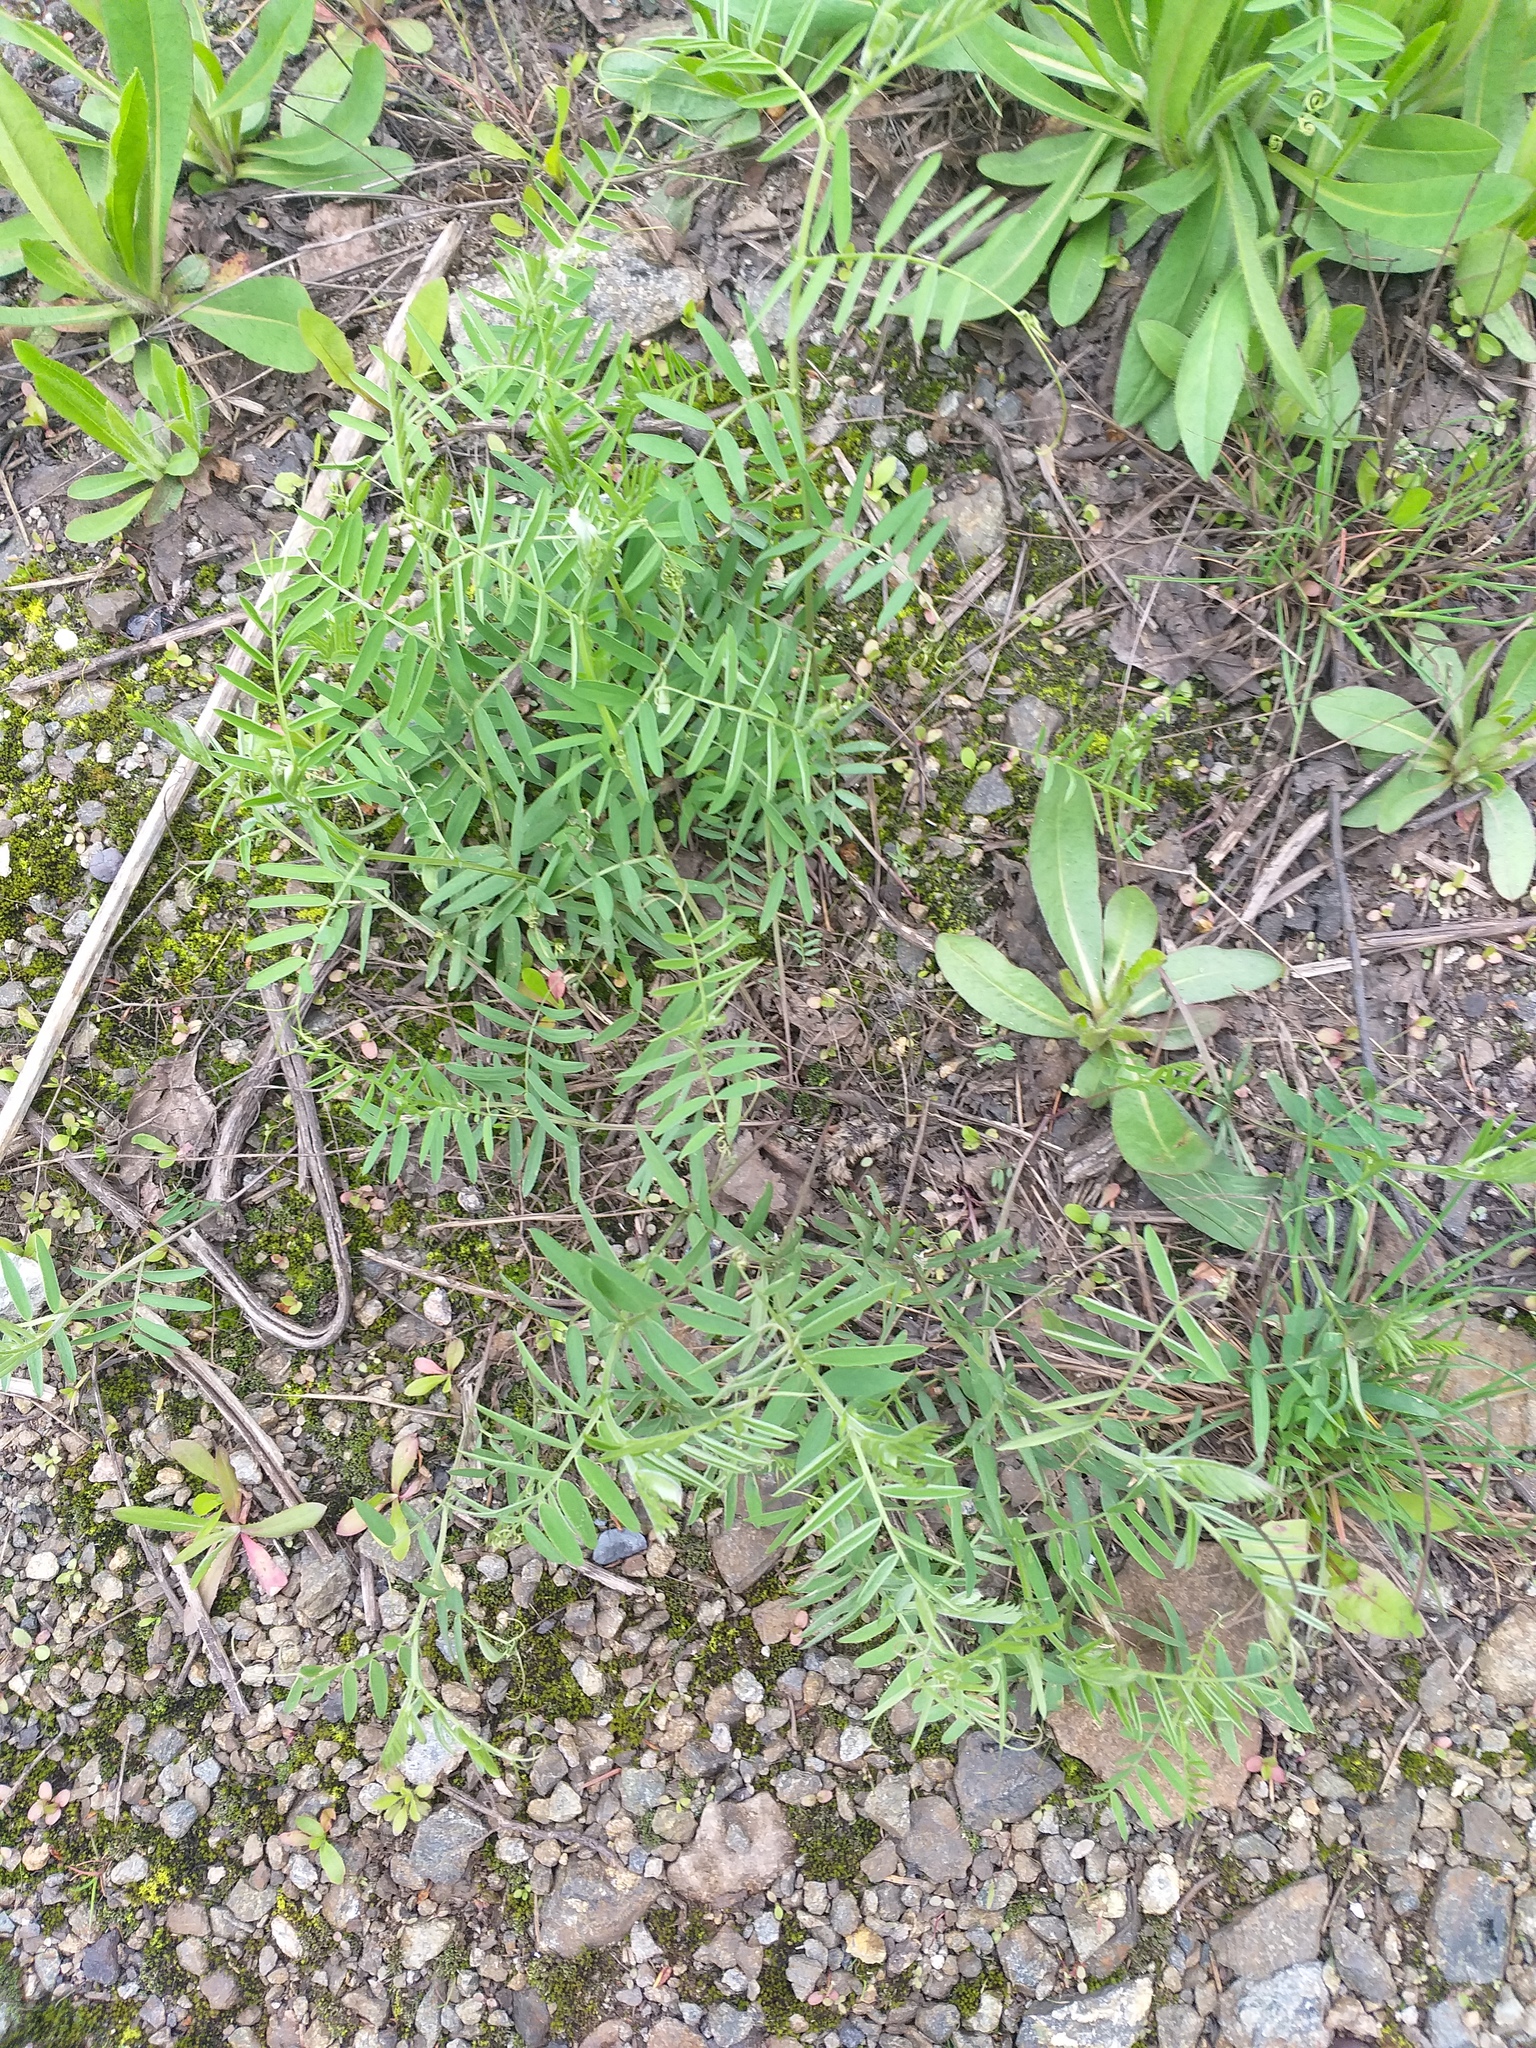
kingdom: Plantae
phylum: Tracheophyta
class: Magnoliopsida
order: Fabales
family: Fabaceae
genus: Vicia
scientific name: Vicia cracca
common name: Bird vetch
